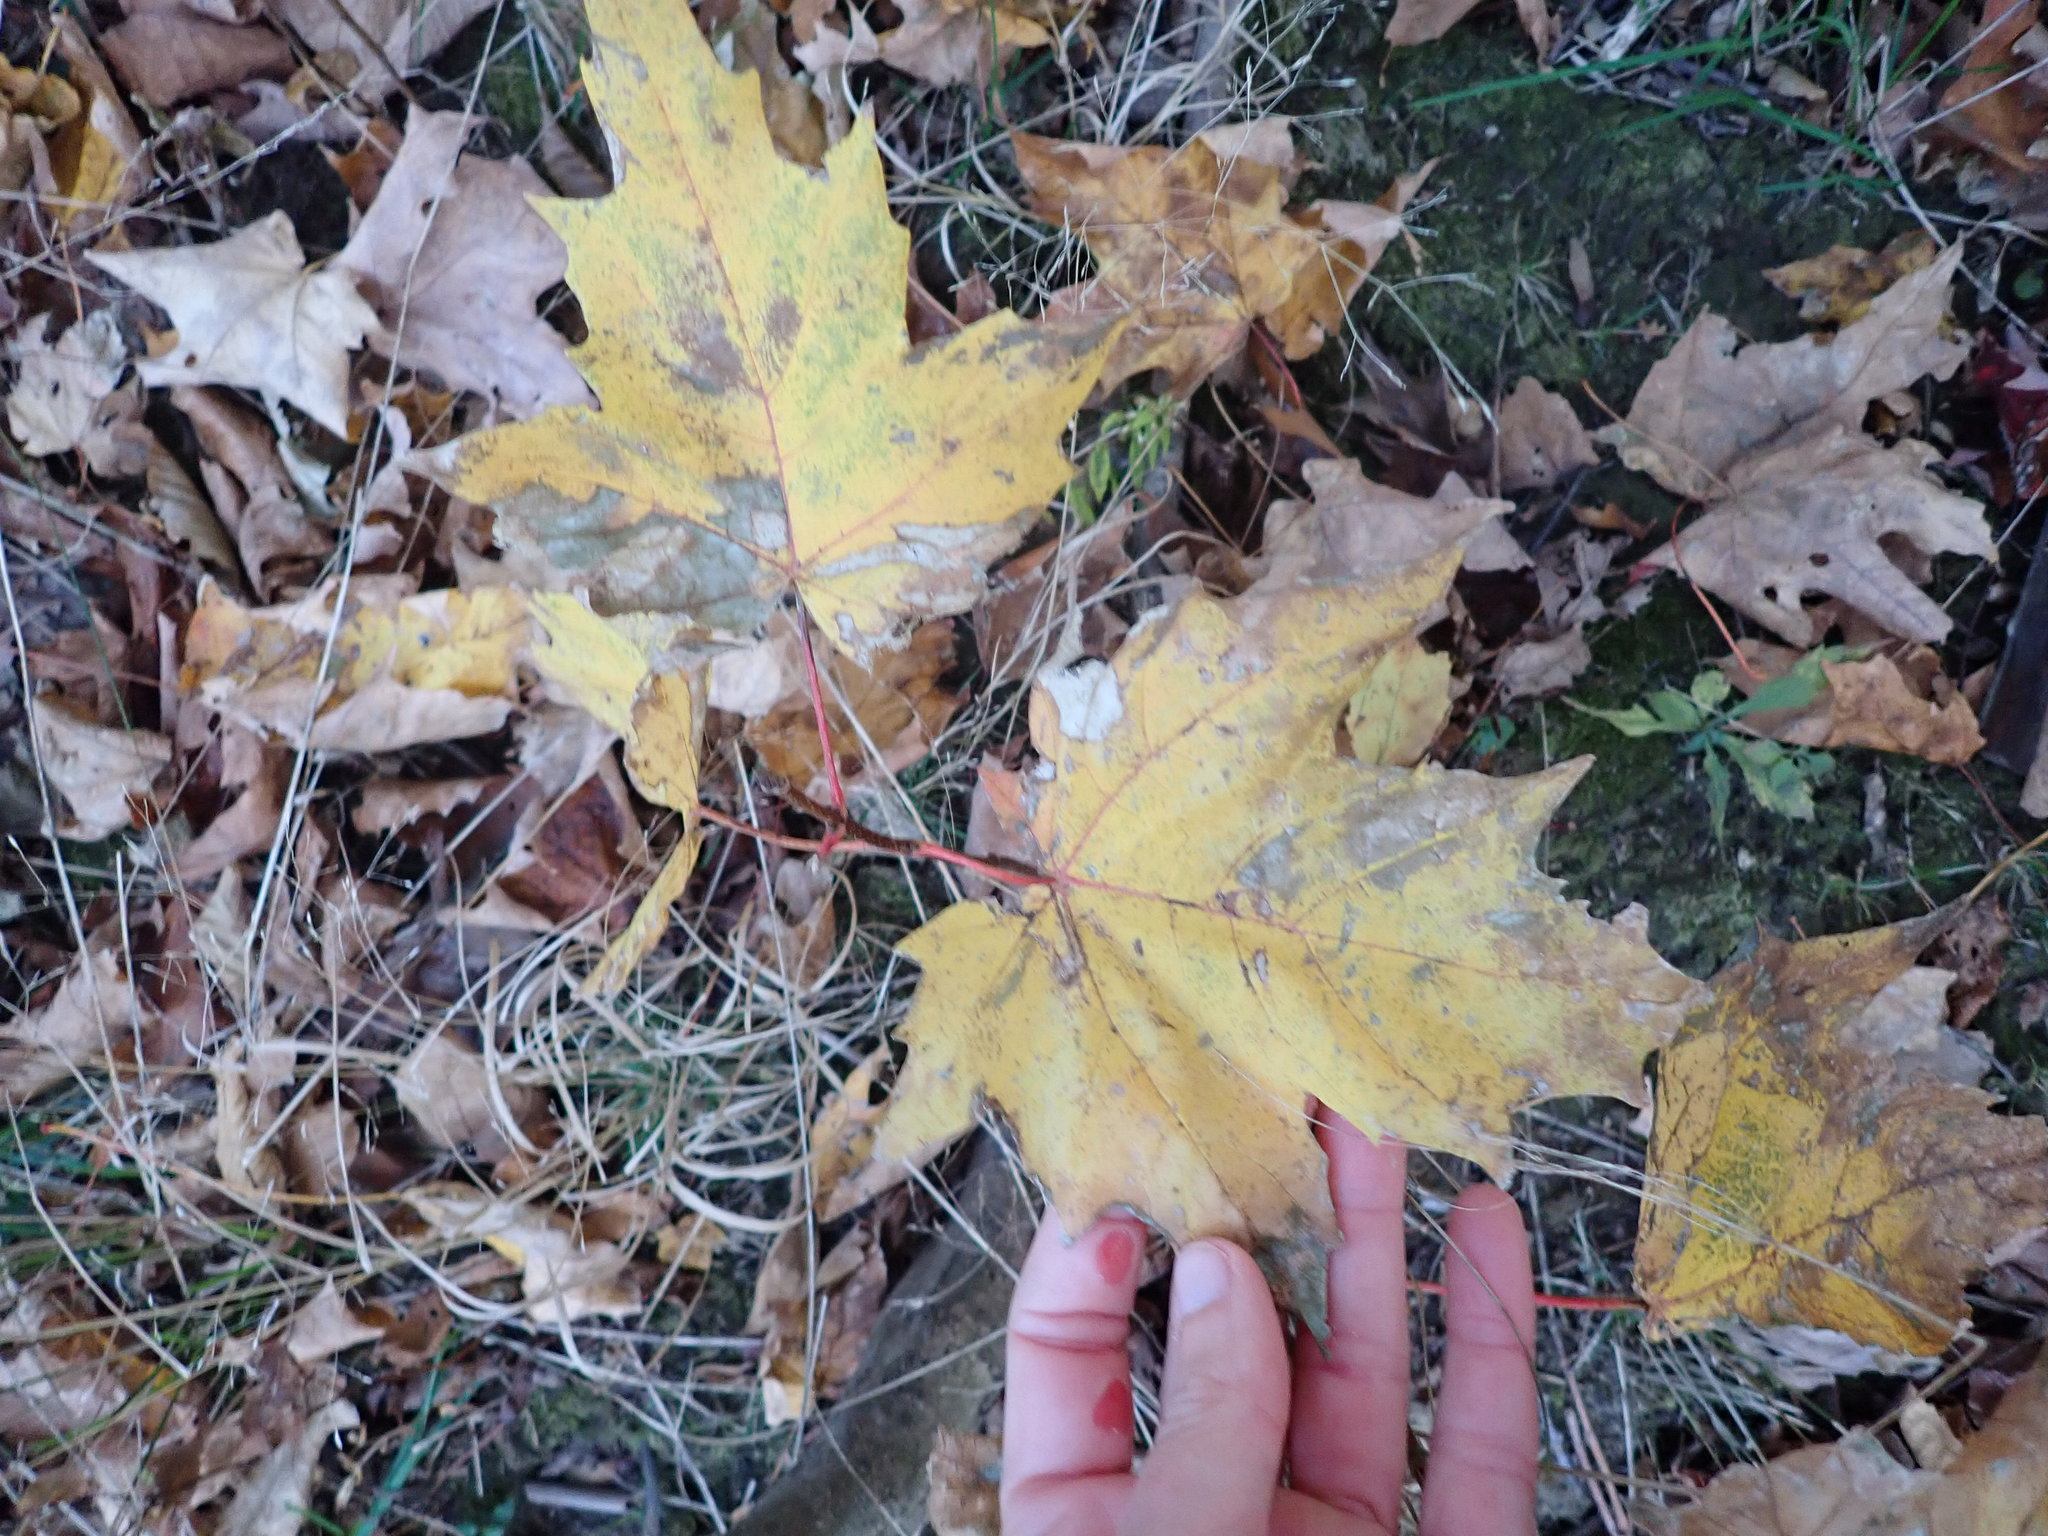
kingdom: Plantae
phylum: Tracheophyta
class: Magnoliopsida
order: Sapindales
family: Sapindaceae
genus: Acer
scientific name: Acer saccharum
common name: Sugar maple
